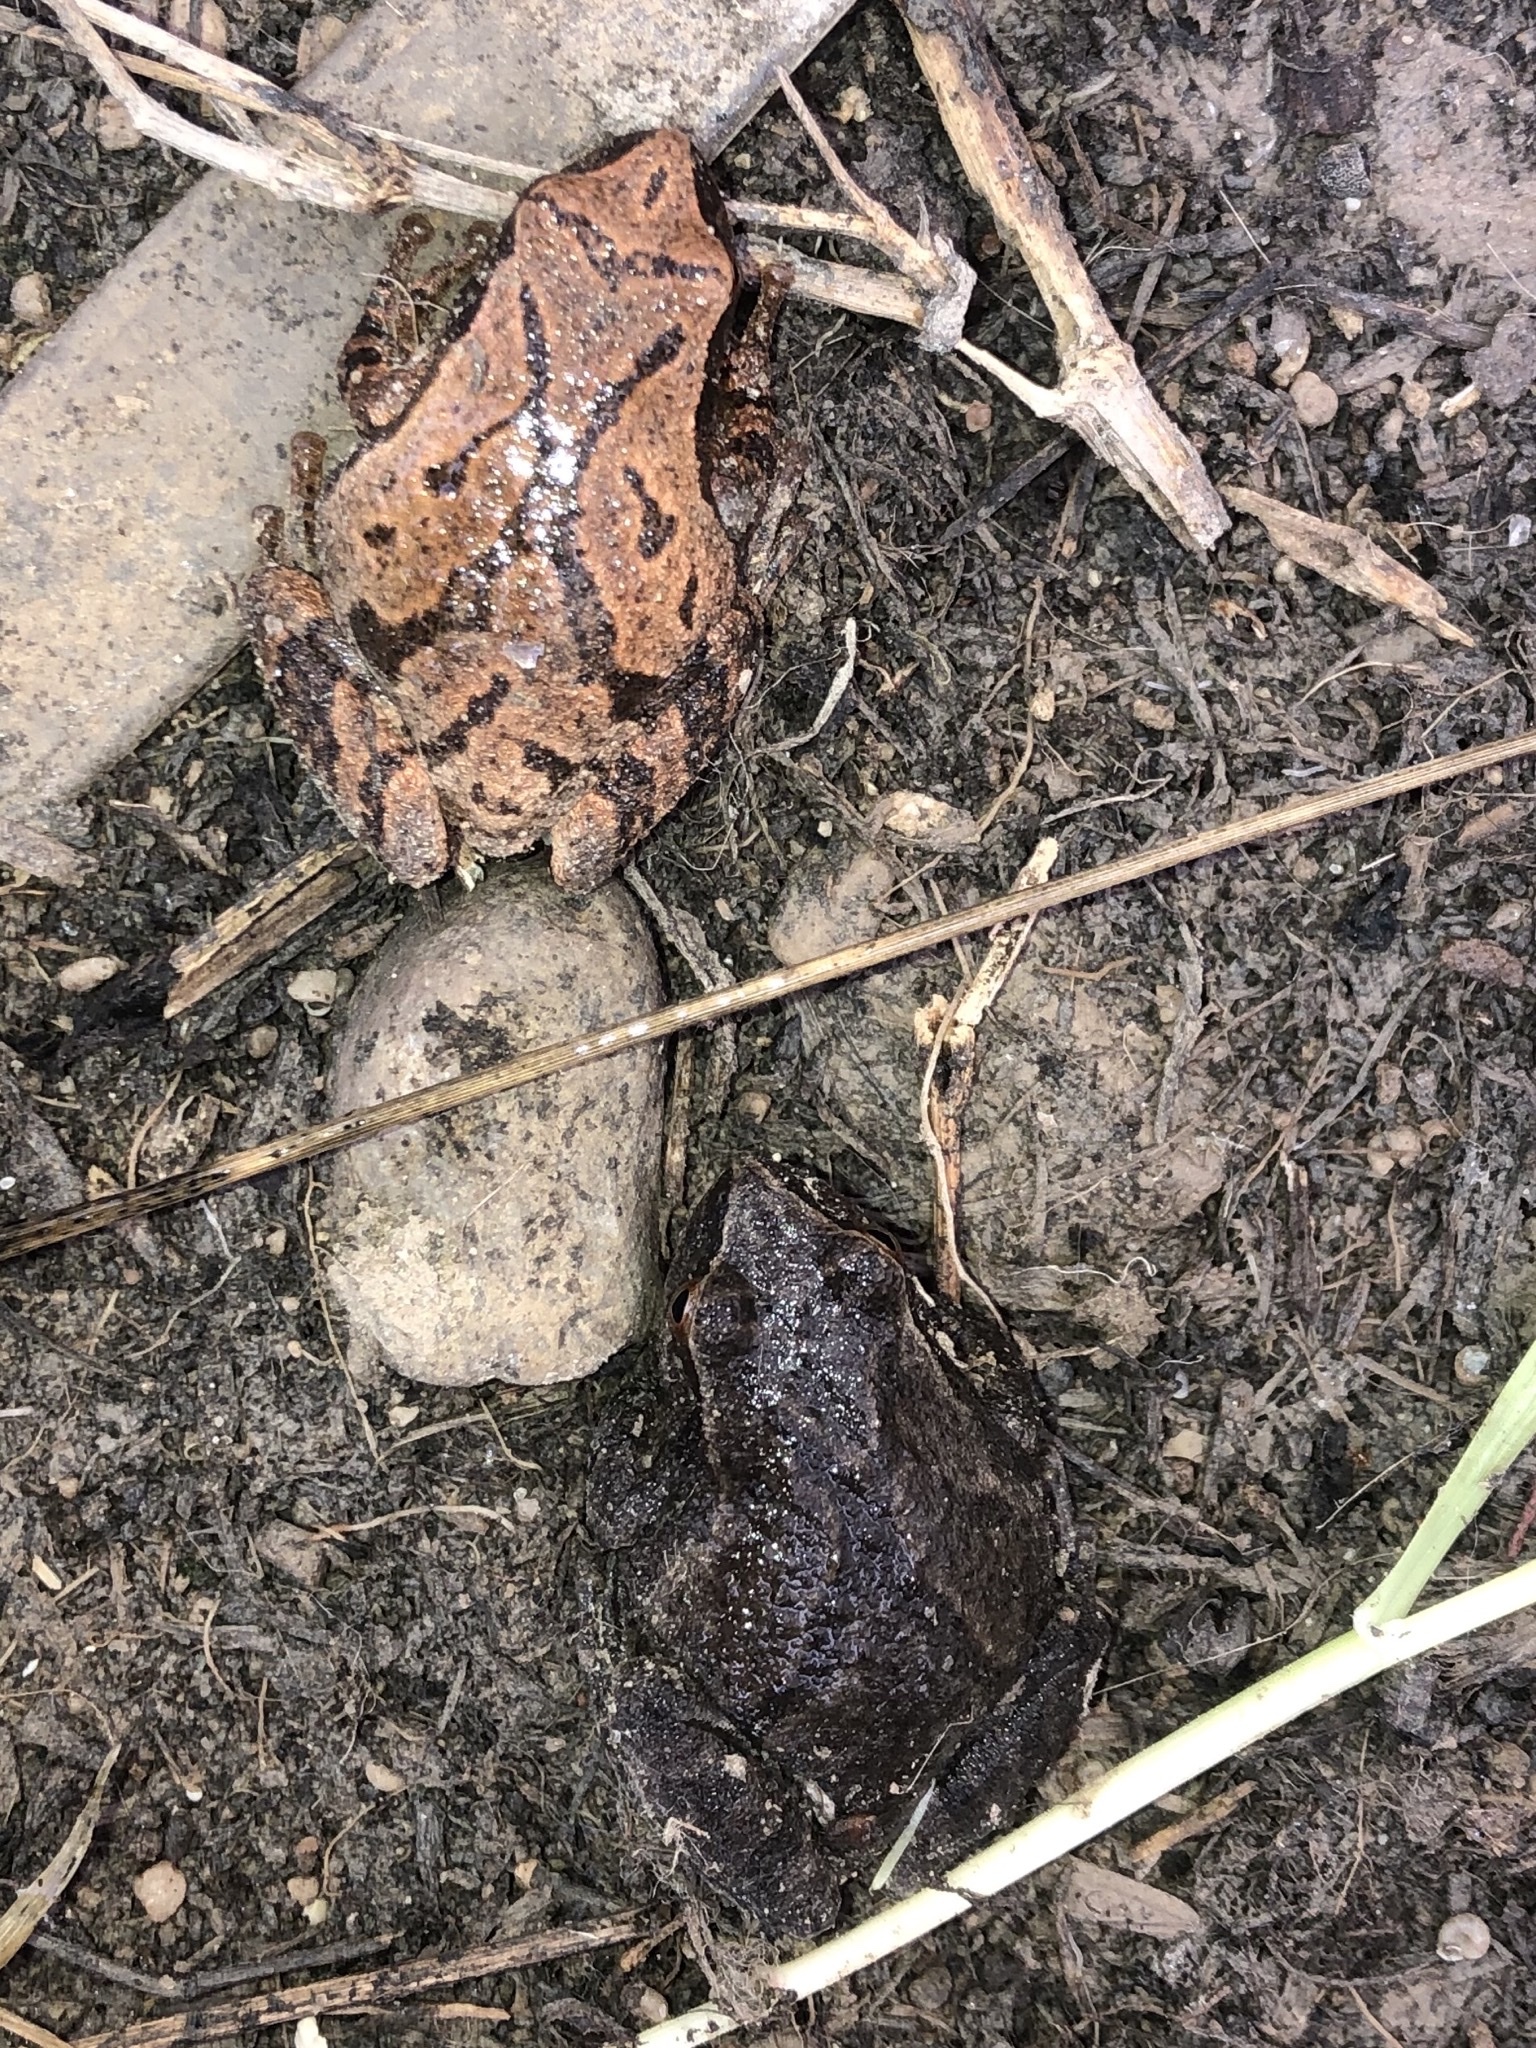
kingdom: Animalia
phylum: Chordata
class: Amphibia
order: Anura
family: Hylidae
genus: Pseudacris
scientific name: Pseudacris crucifer
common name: Spring peeper
